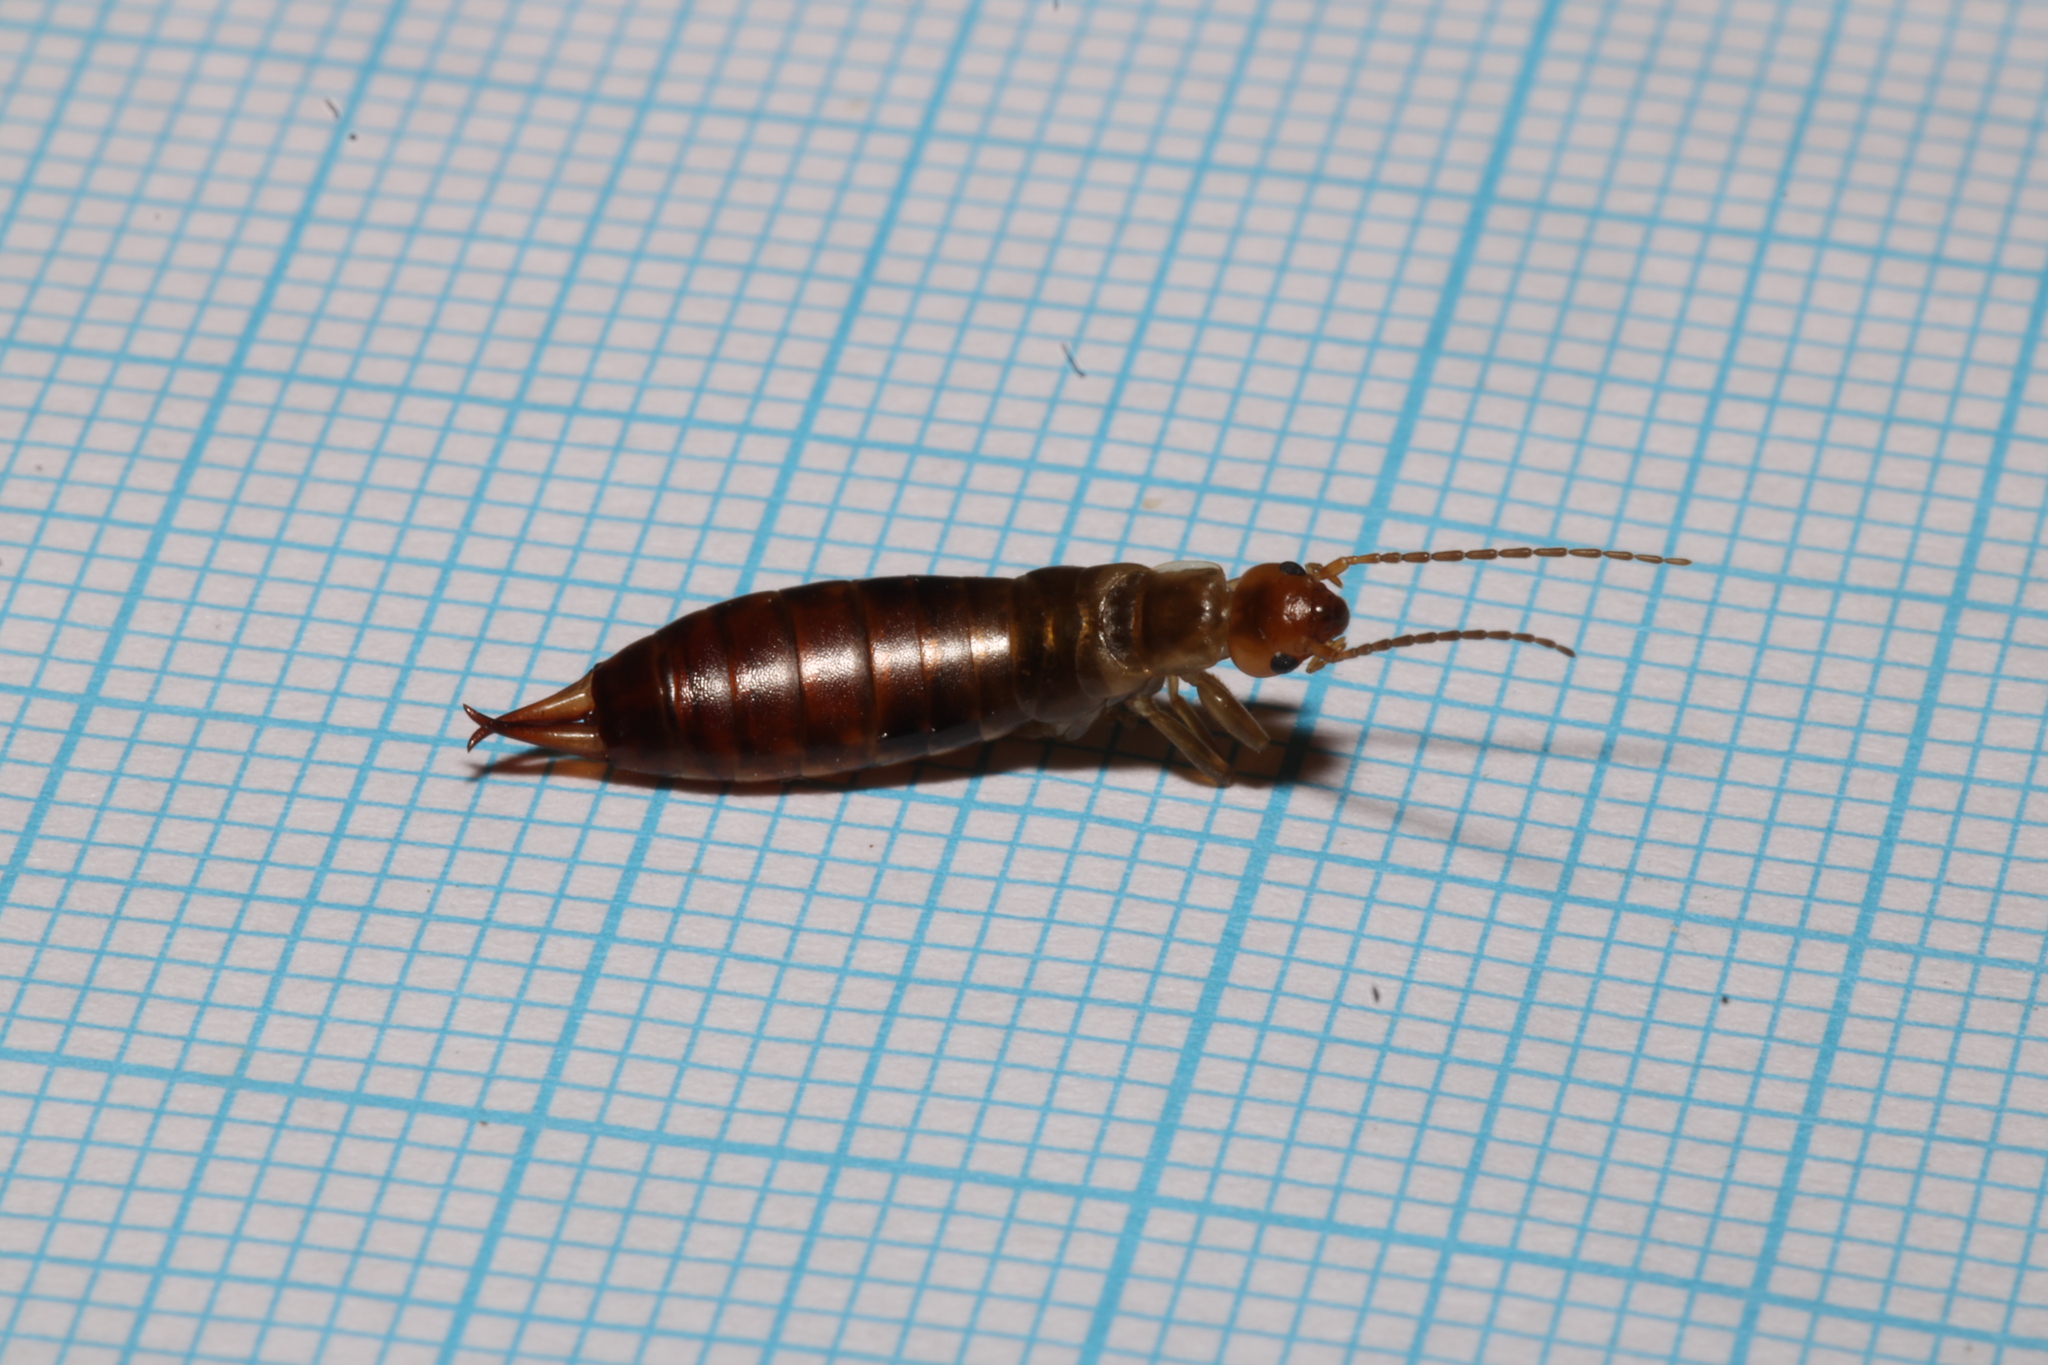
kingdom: Animalia
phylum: Arthropoda
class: Insecta
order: Dermaptera
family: Forficulidae
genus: Chelidurella
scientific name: Chelidurella acanthopygia
